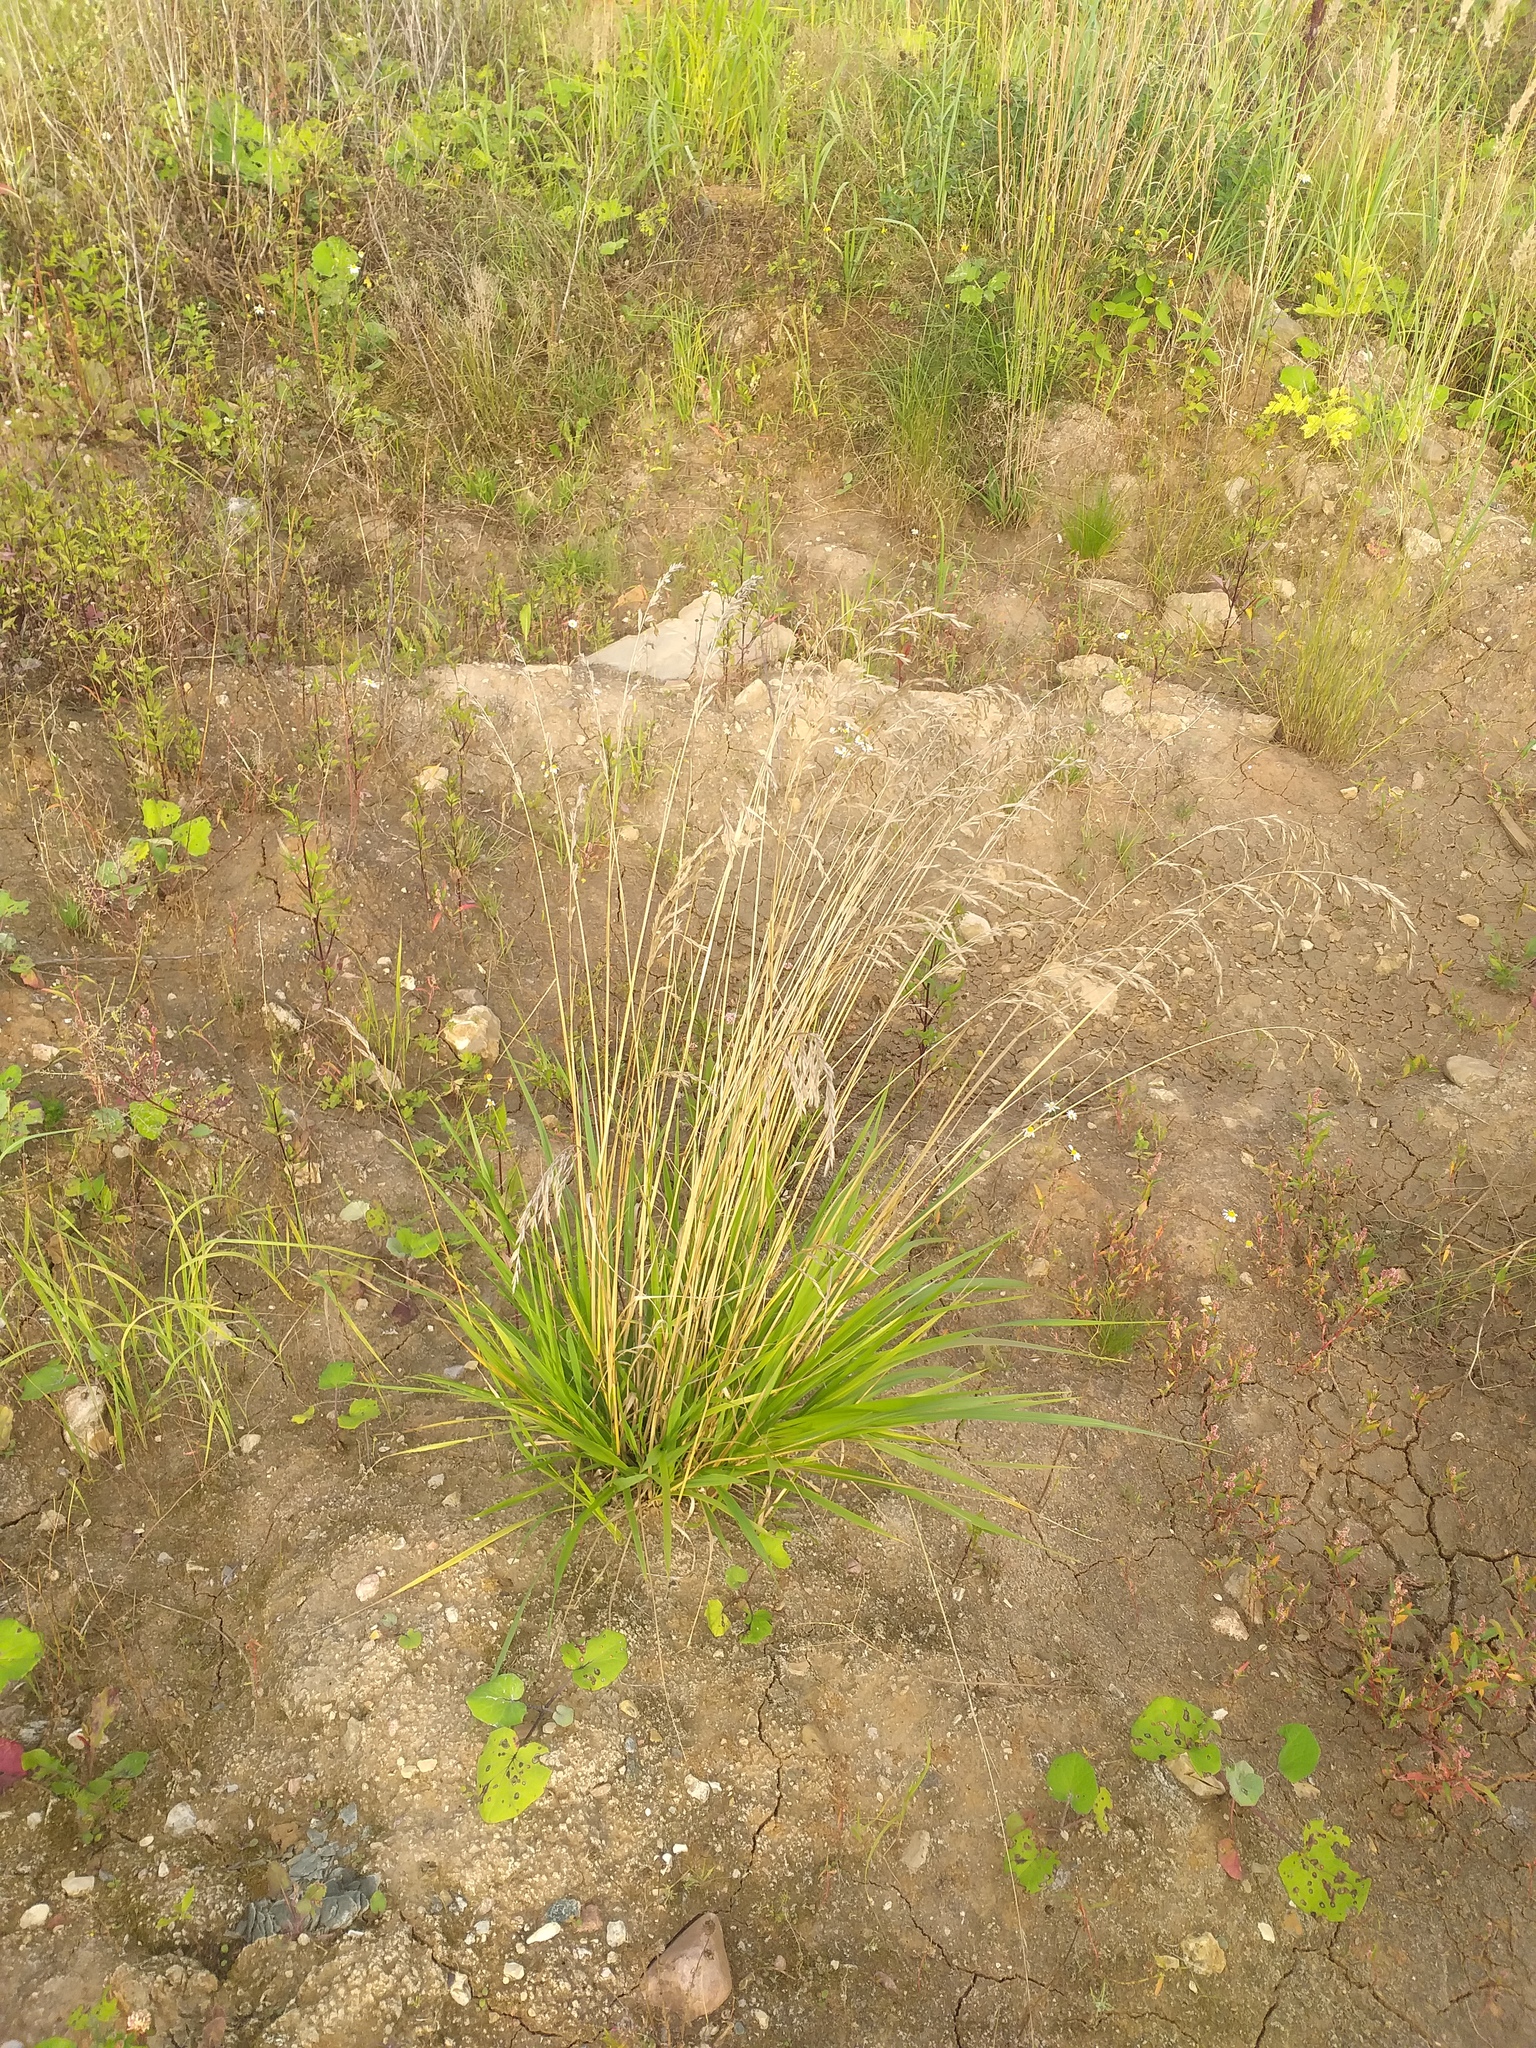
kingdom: Plantae
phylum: Tracheophyta
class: Liliopsida
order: Poales
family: Poaceae
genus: Lolium
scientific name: Lolium arundinaceum
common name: Reed fescue
